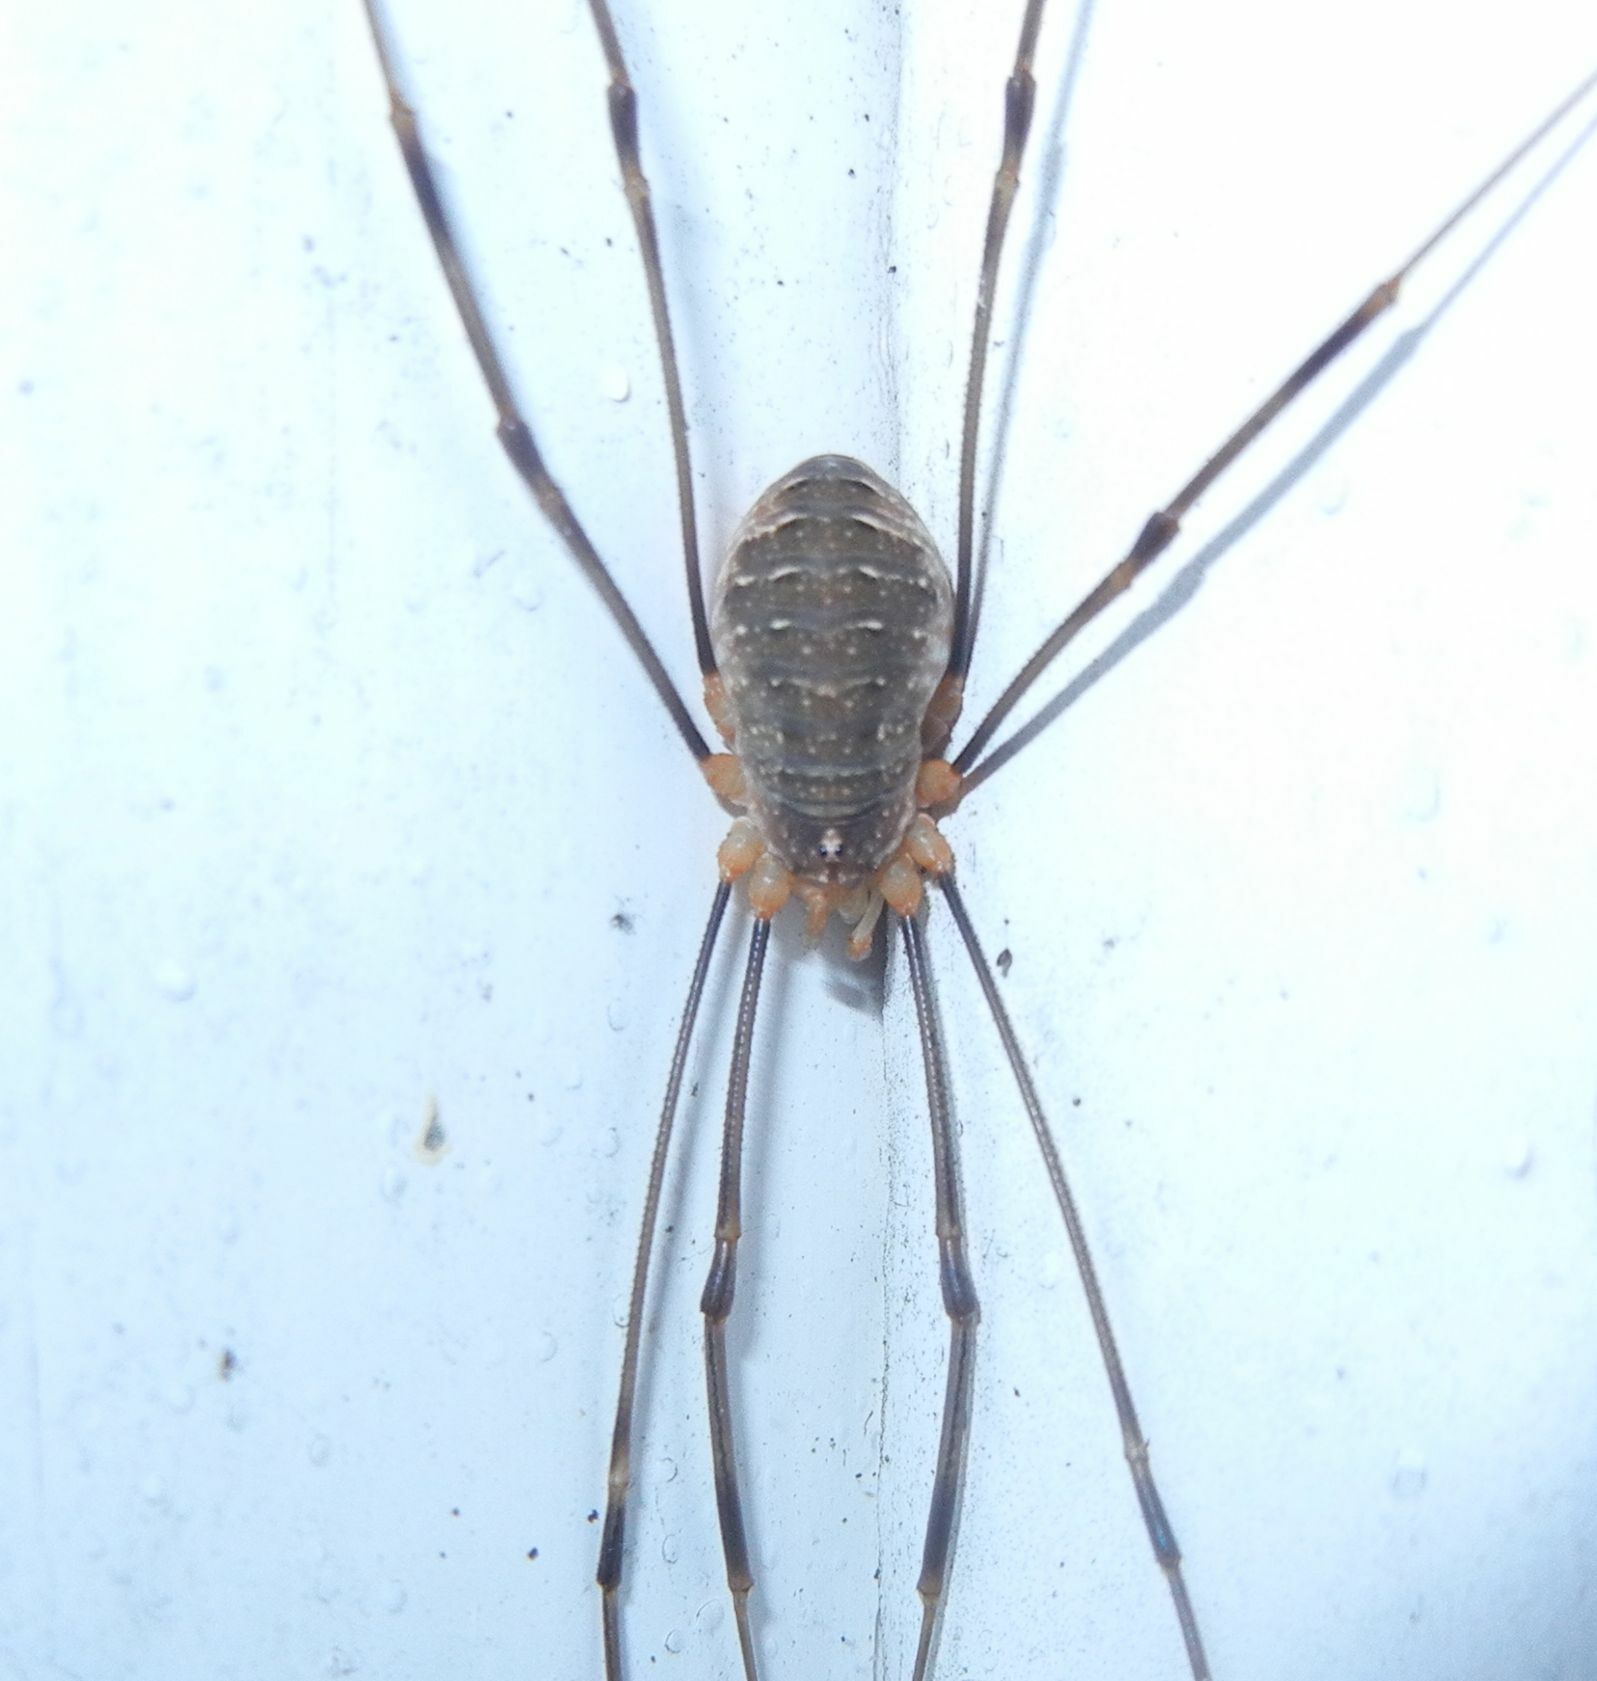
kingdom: Animalia
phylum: Arthropoda
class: Arachnida
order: Opiliones
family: Phalangiidae
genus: Opilio
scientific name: Opilio canestrinii
